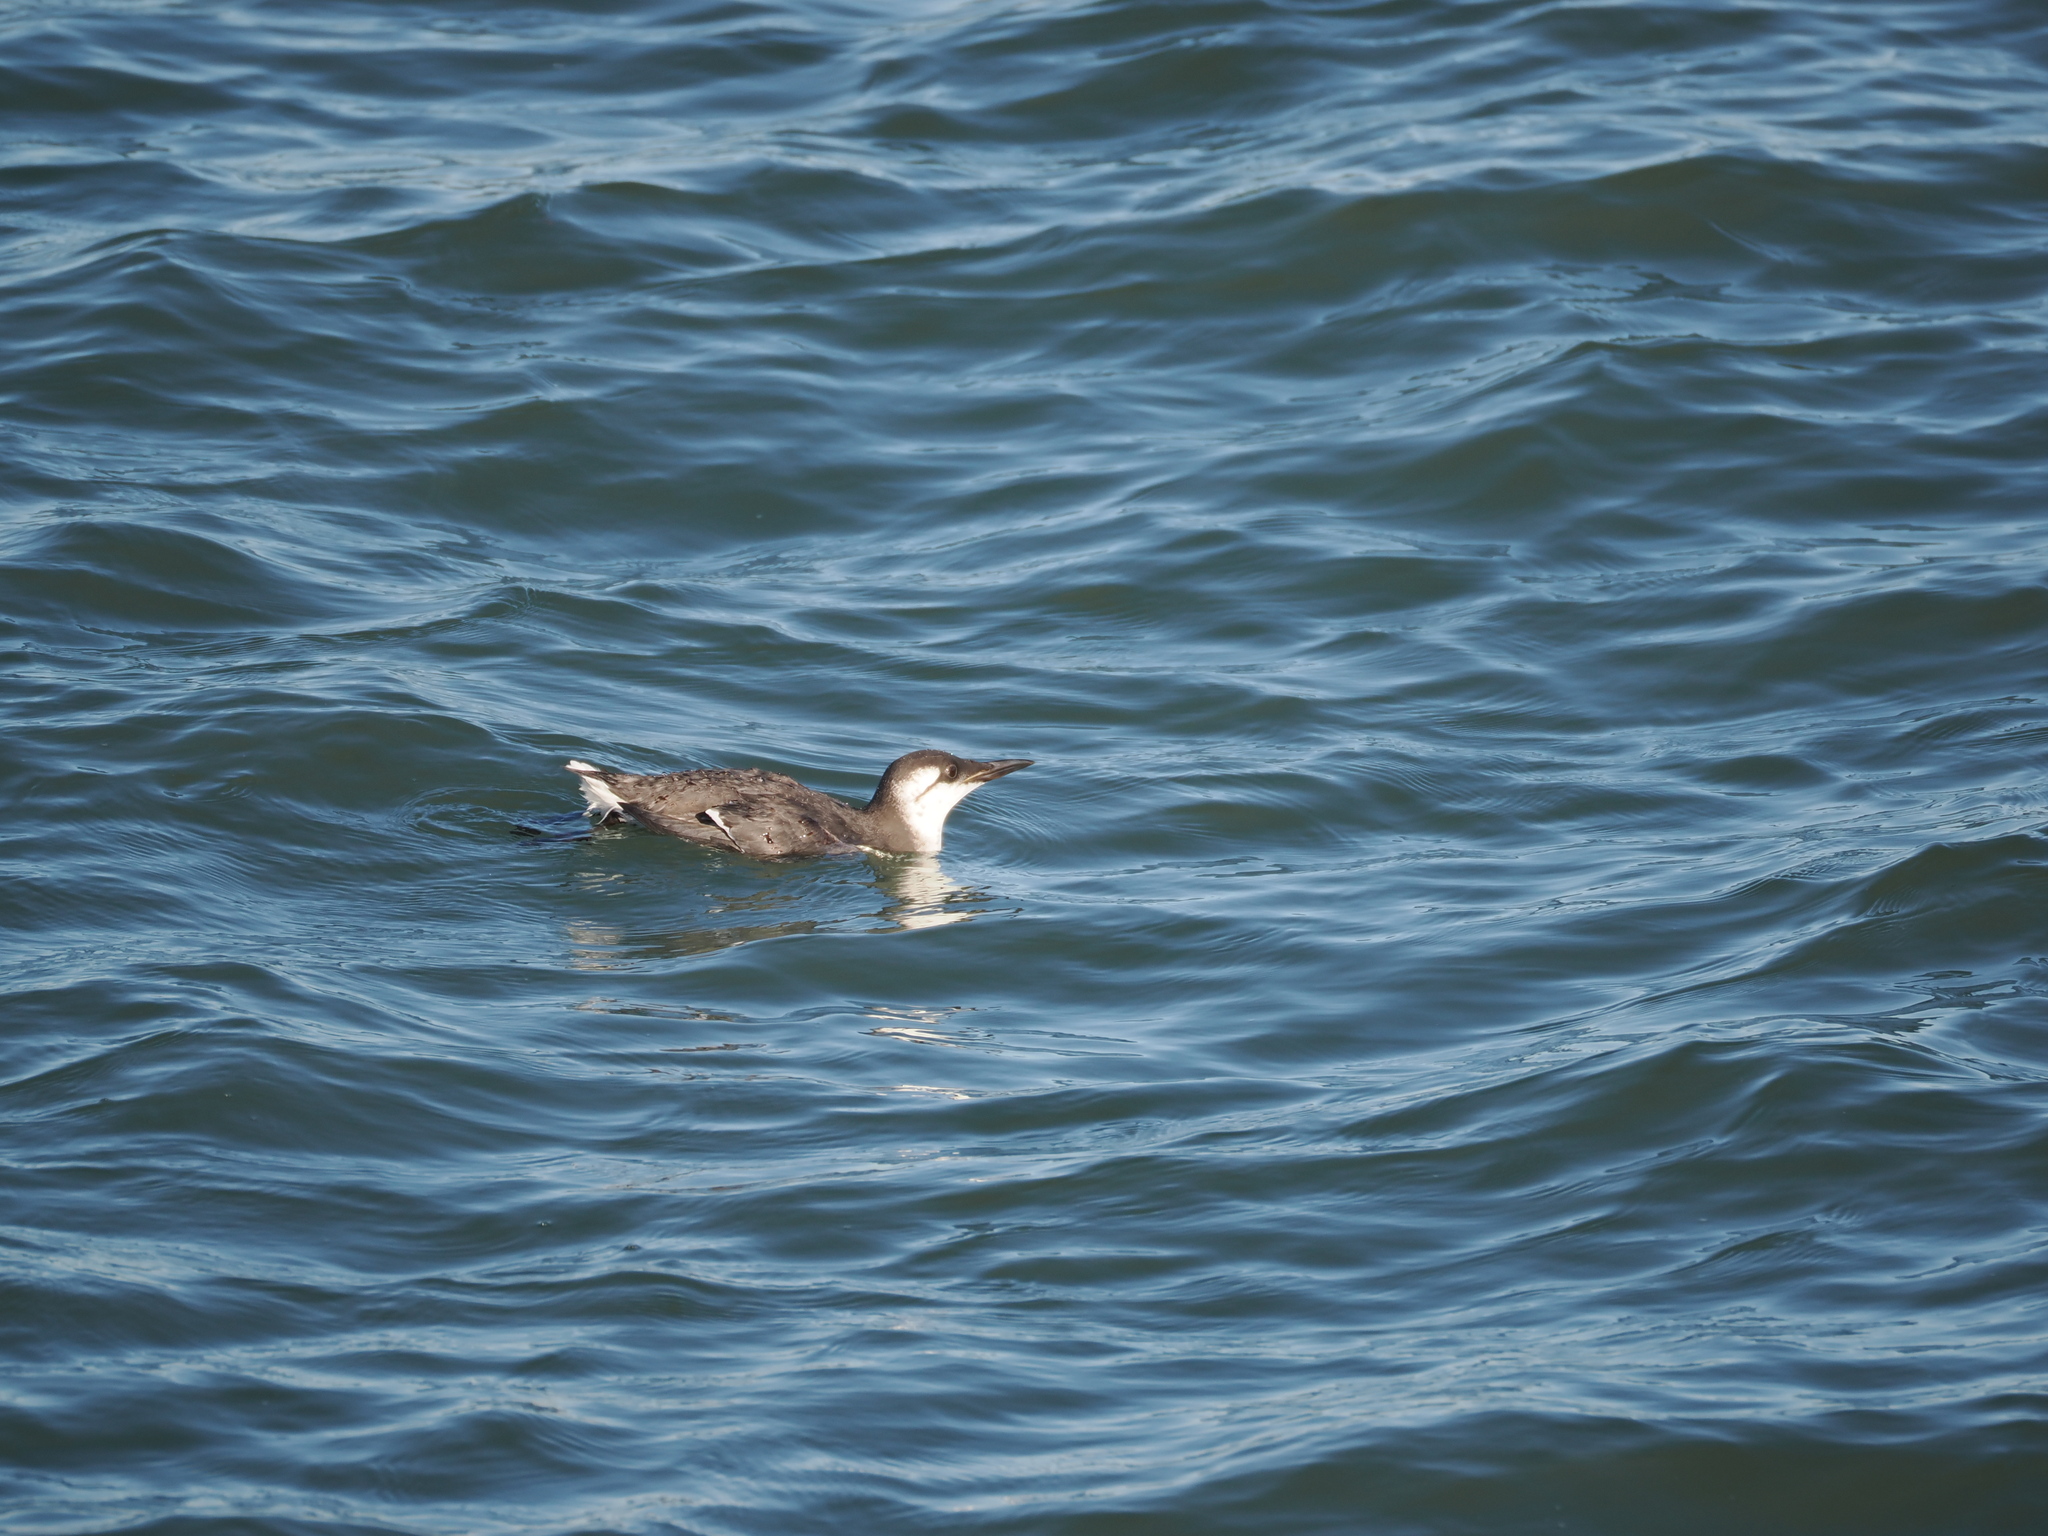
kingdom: Animalia
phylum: Chordata
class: Aves
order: Charadriiformes
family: Alcidae
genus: Uria
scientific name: Uria aalge
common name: Common murre
